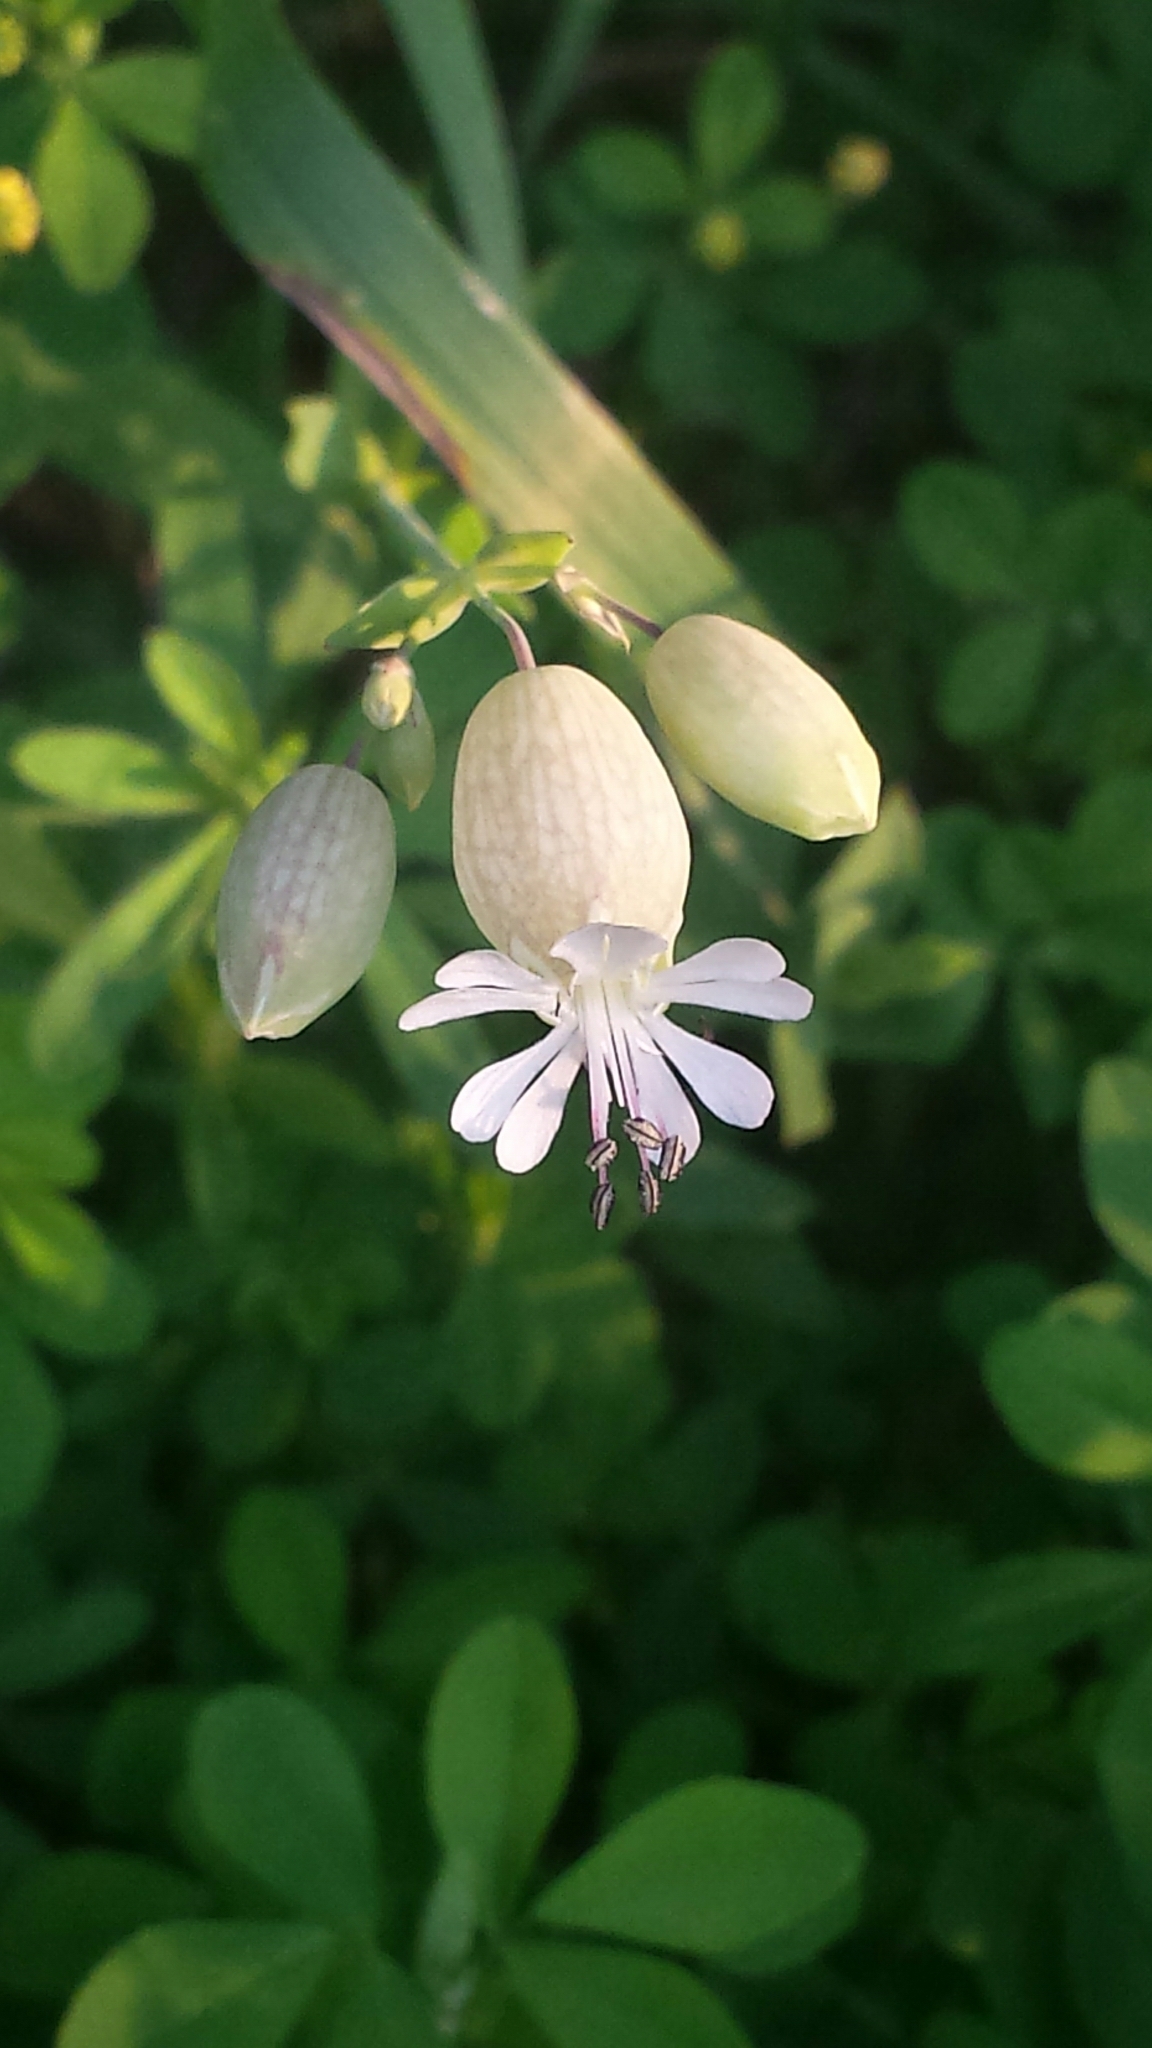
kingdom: Plantae
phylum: Tracheophyta
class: Magnoliopsida
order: Caryophyllales
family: Caryophyllaceae
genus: Silene
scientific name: Silene vulgaris
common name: Bladder campion
